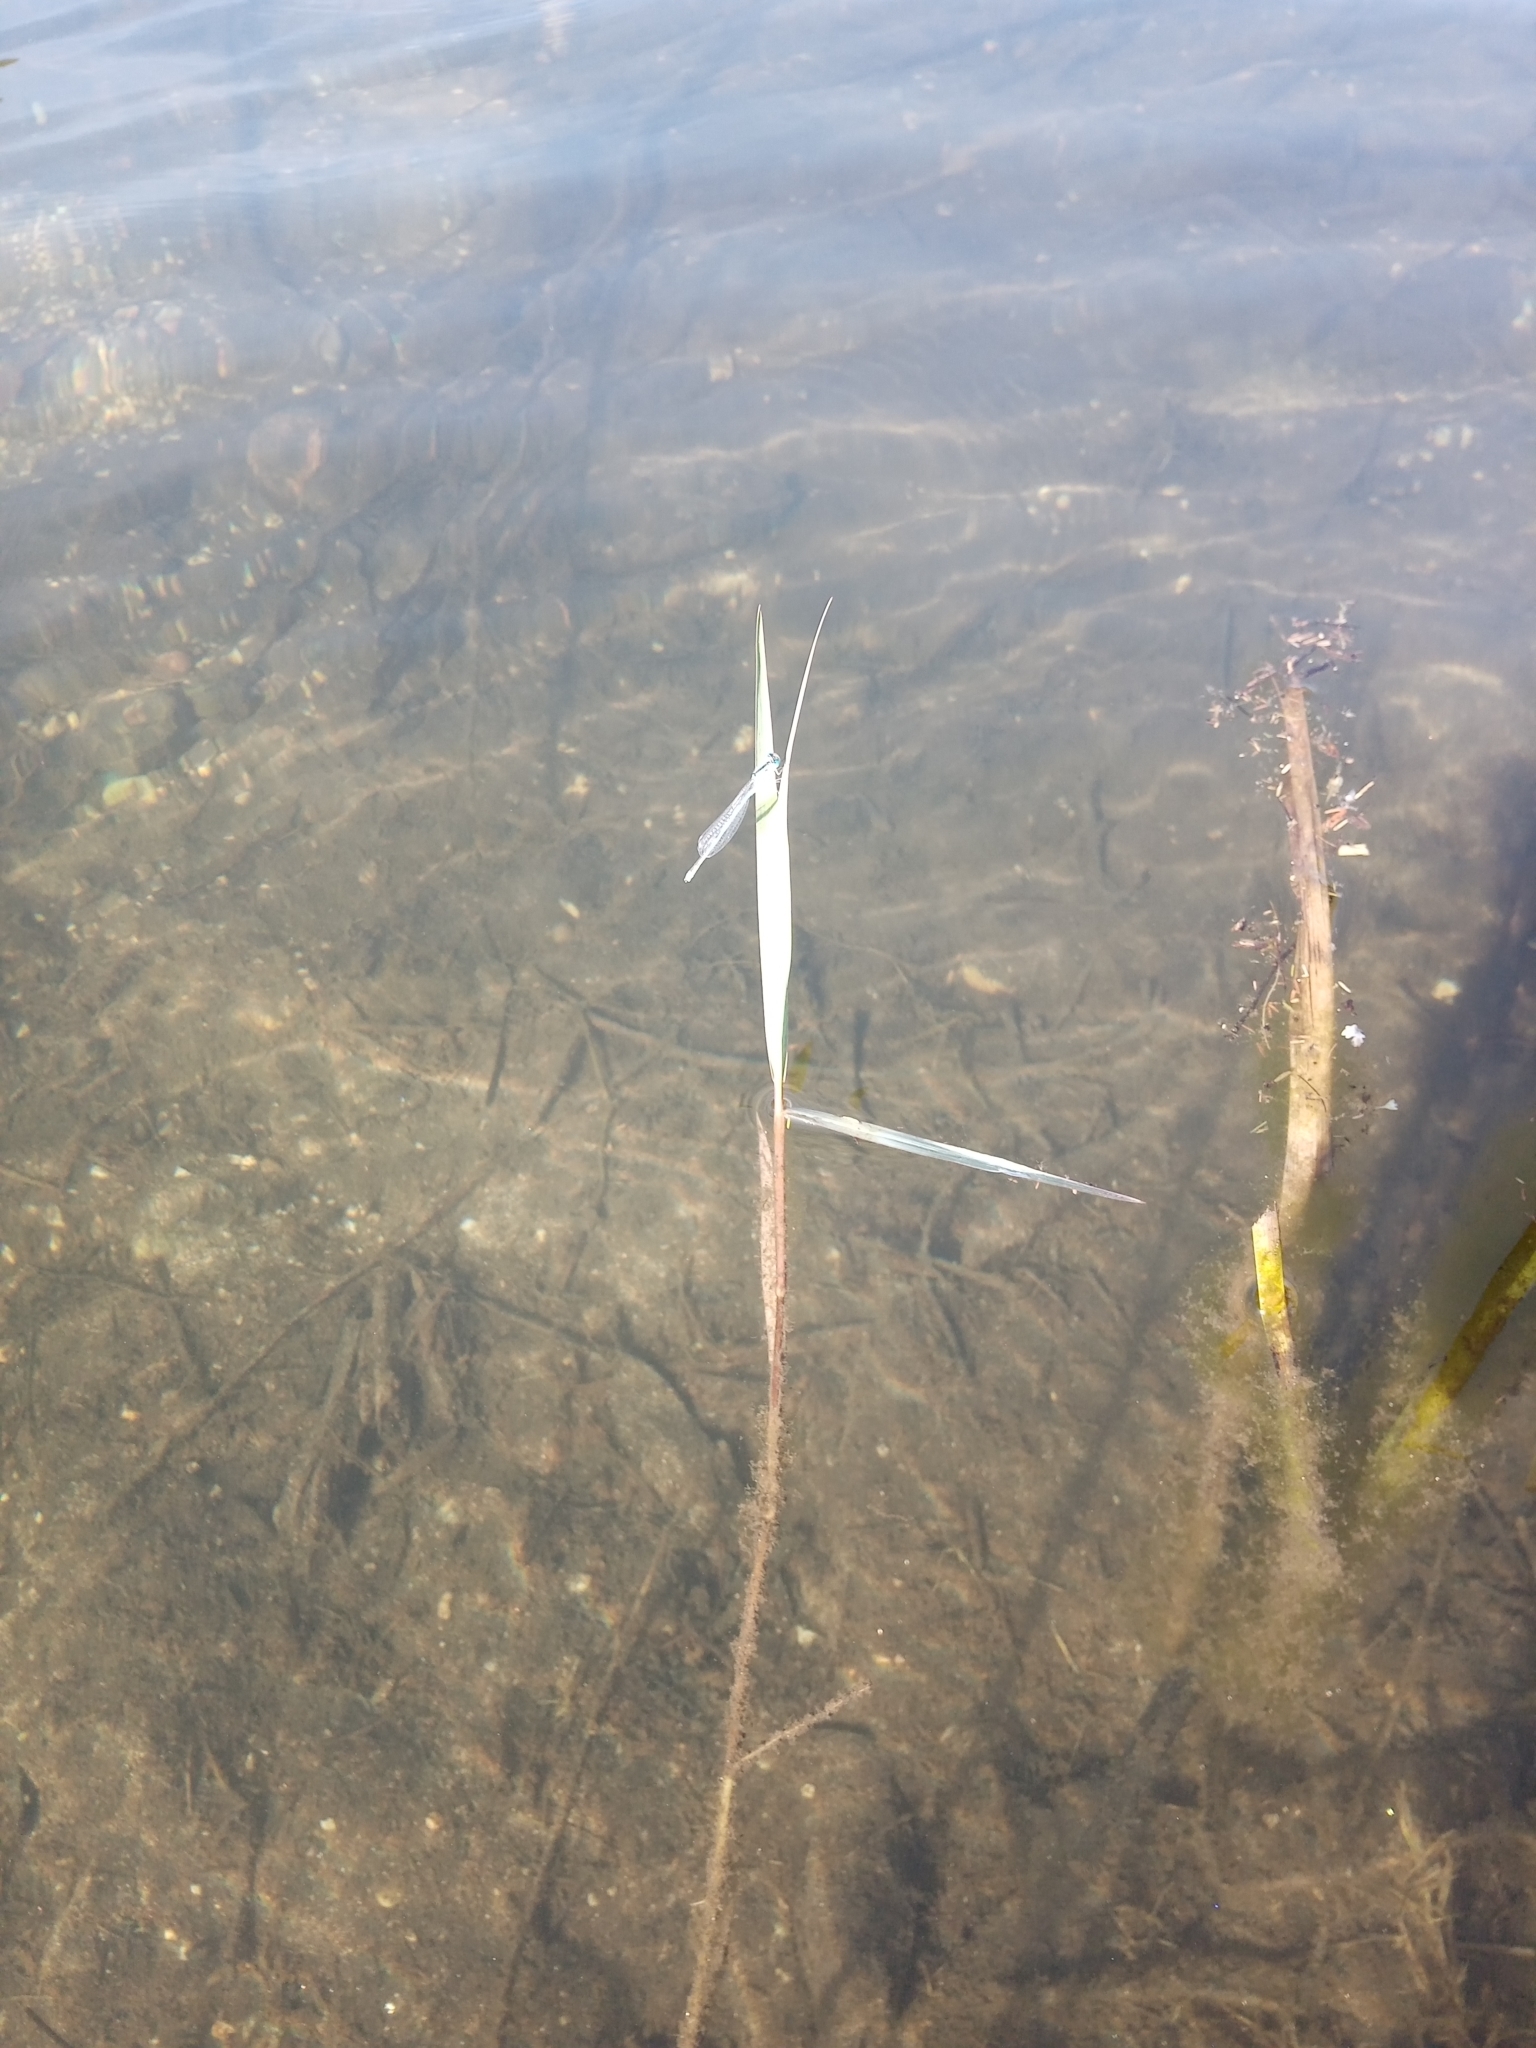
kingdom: Animalia
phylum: Arthropoda
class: Insecta
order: Odonata
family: Coenagrionidae
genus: Erythromma
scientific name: Erythromma lindenii
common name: Blue-eye
